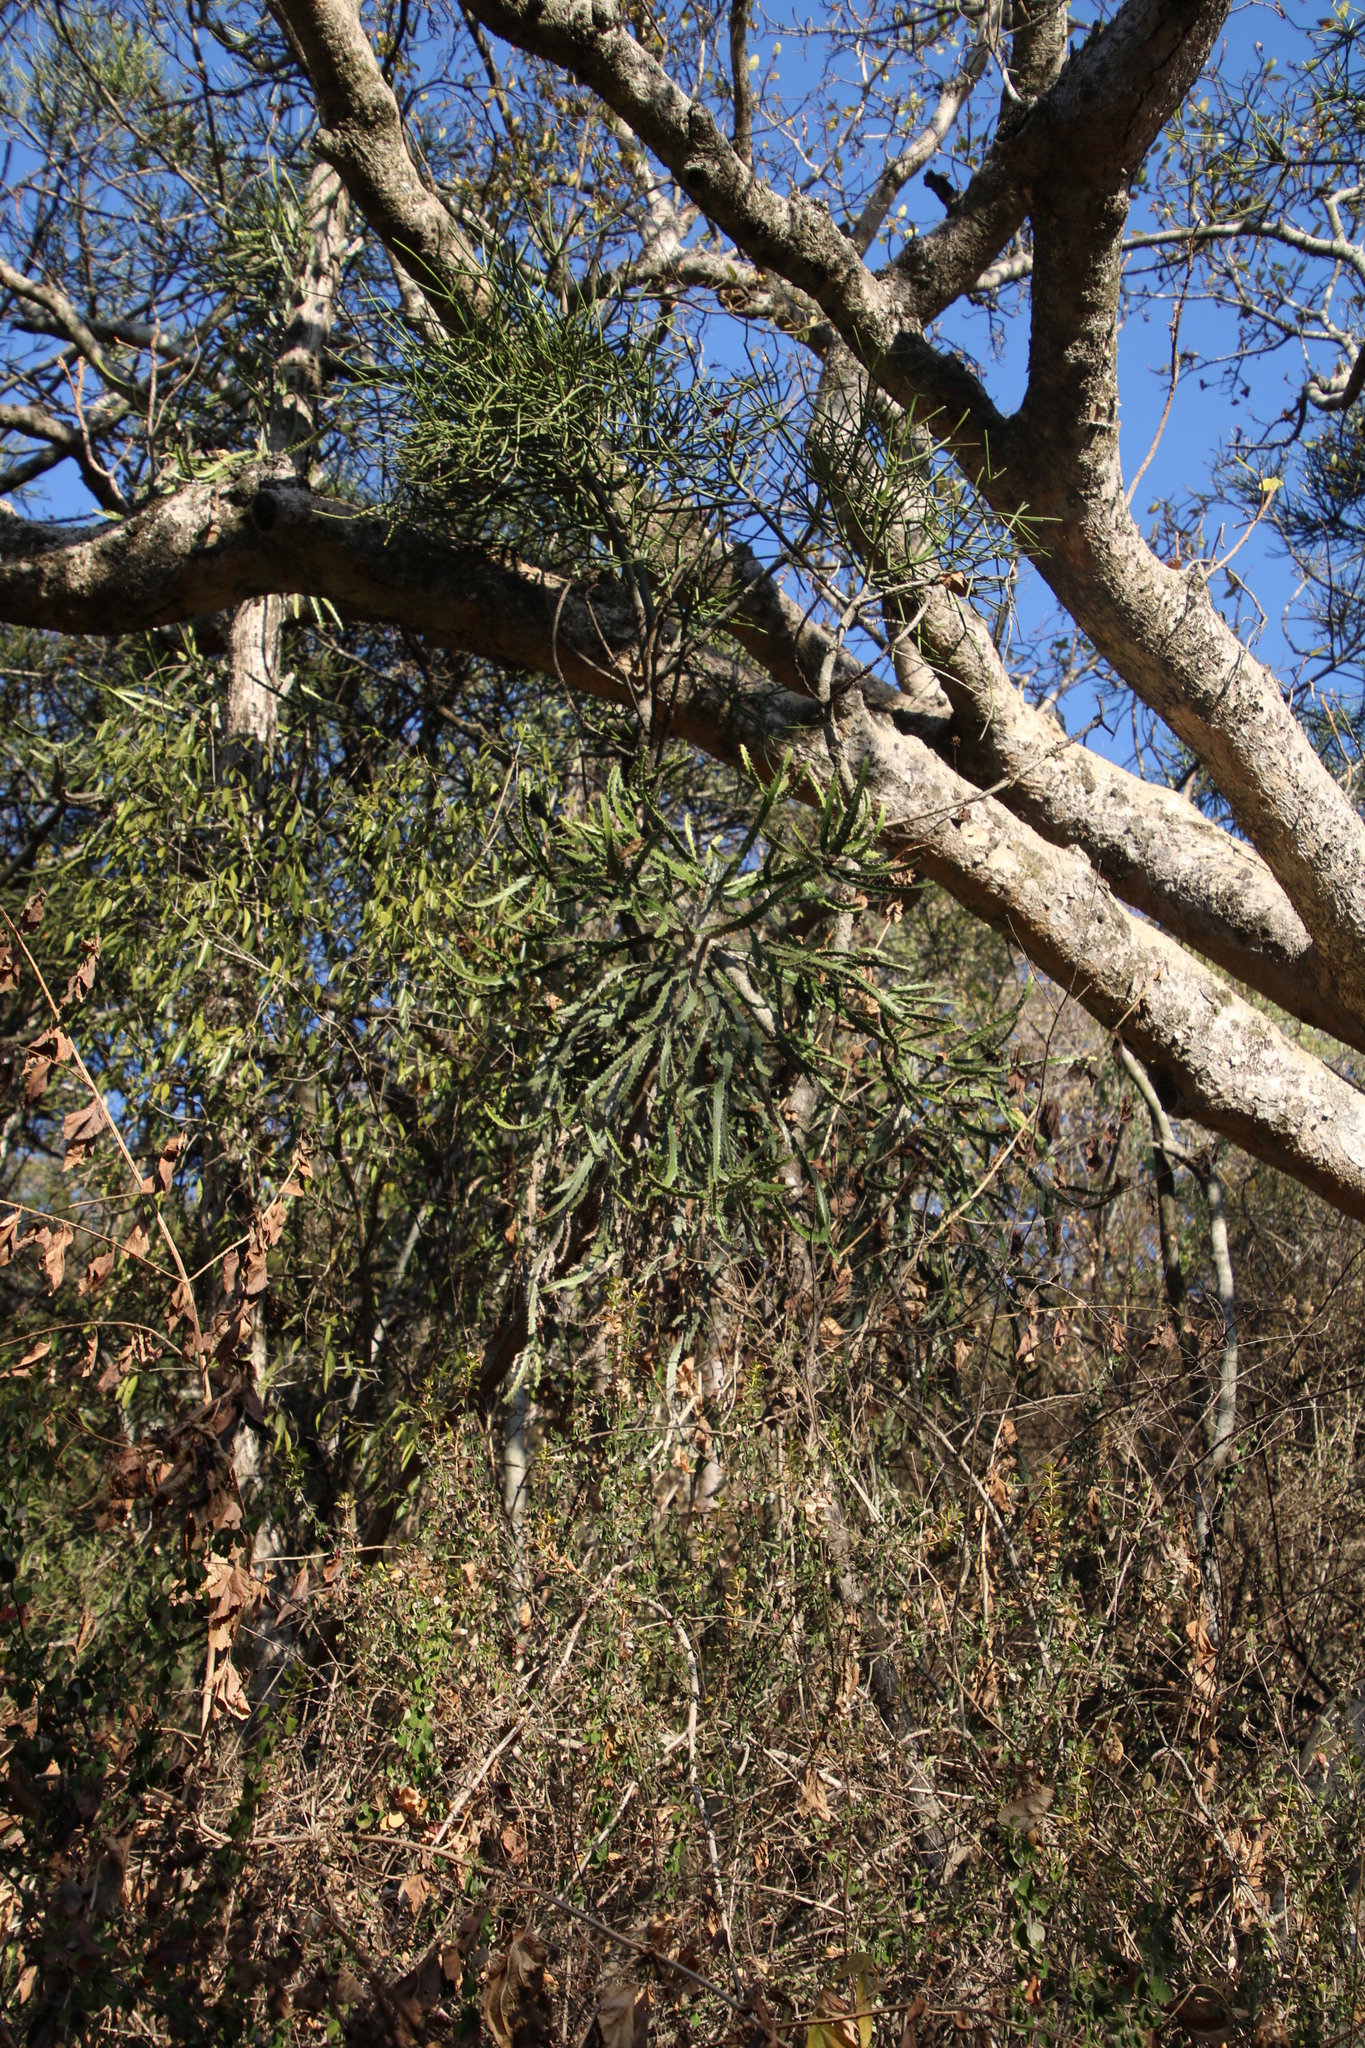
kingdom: Plantae
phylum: Tracheophyta
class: Magnoliopsida
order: Malpighiales
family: Euphorbiaceae
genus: Euphorbia
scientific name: Euphorbia grandidens
